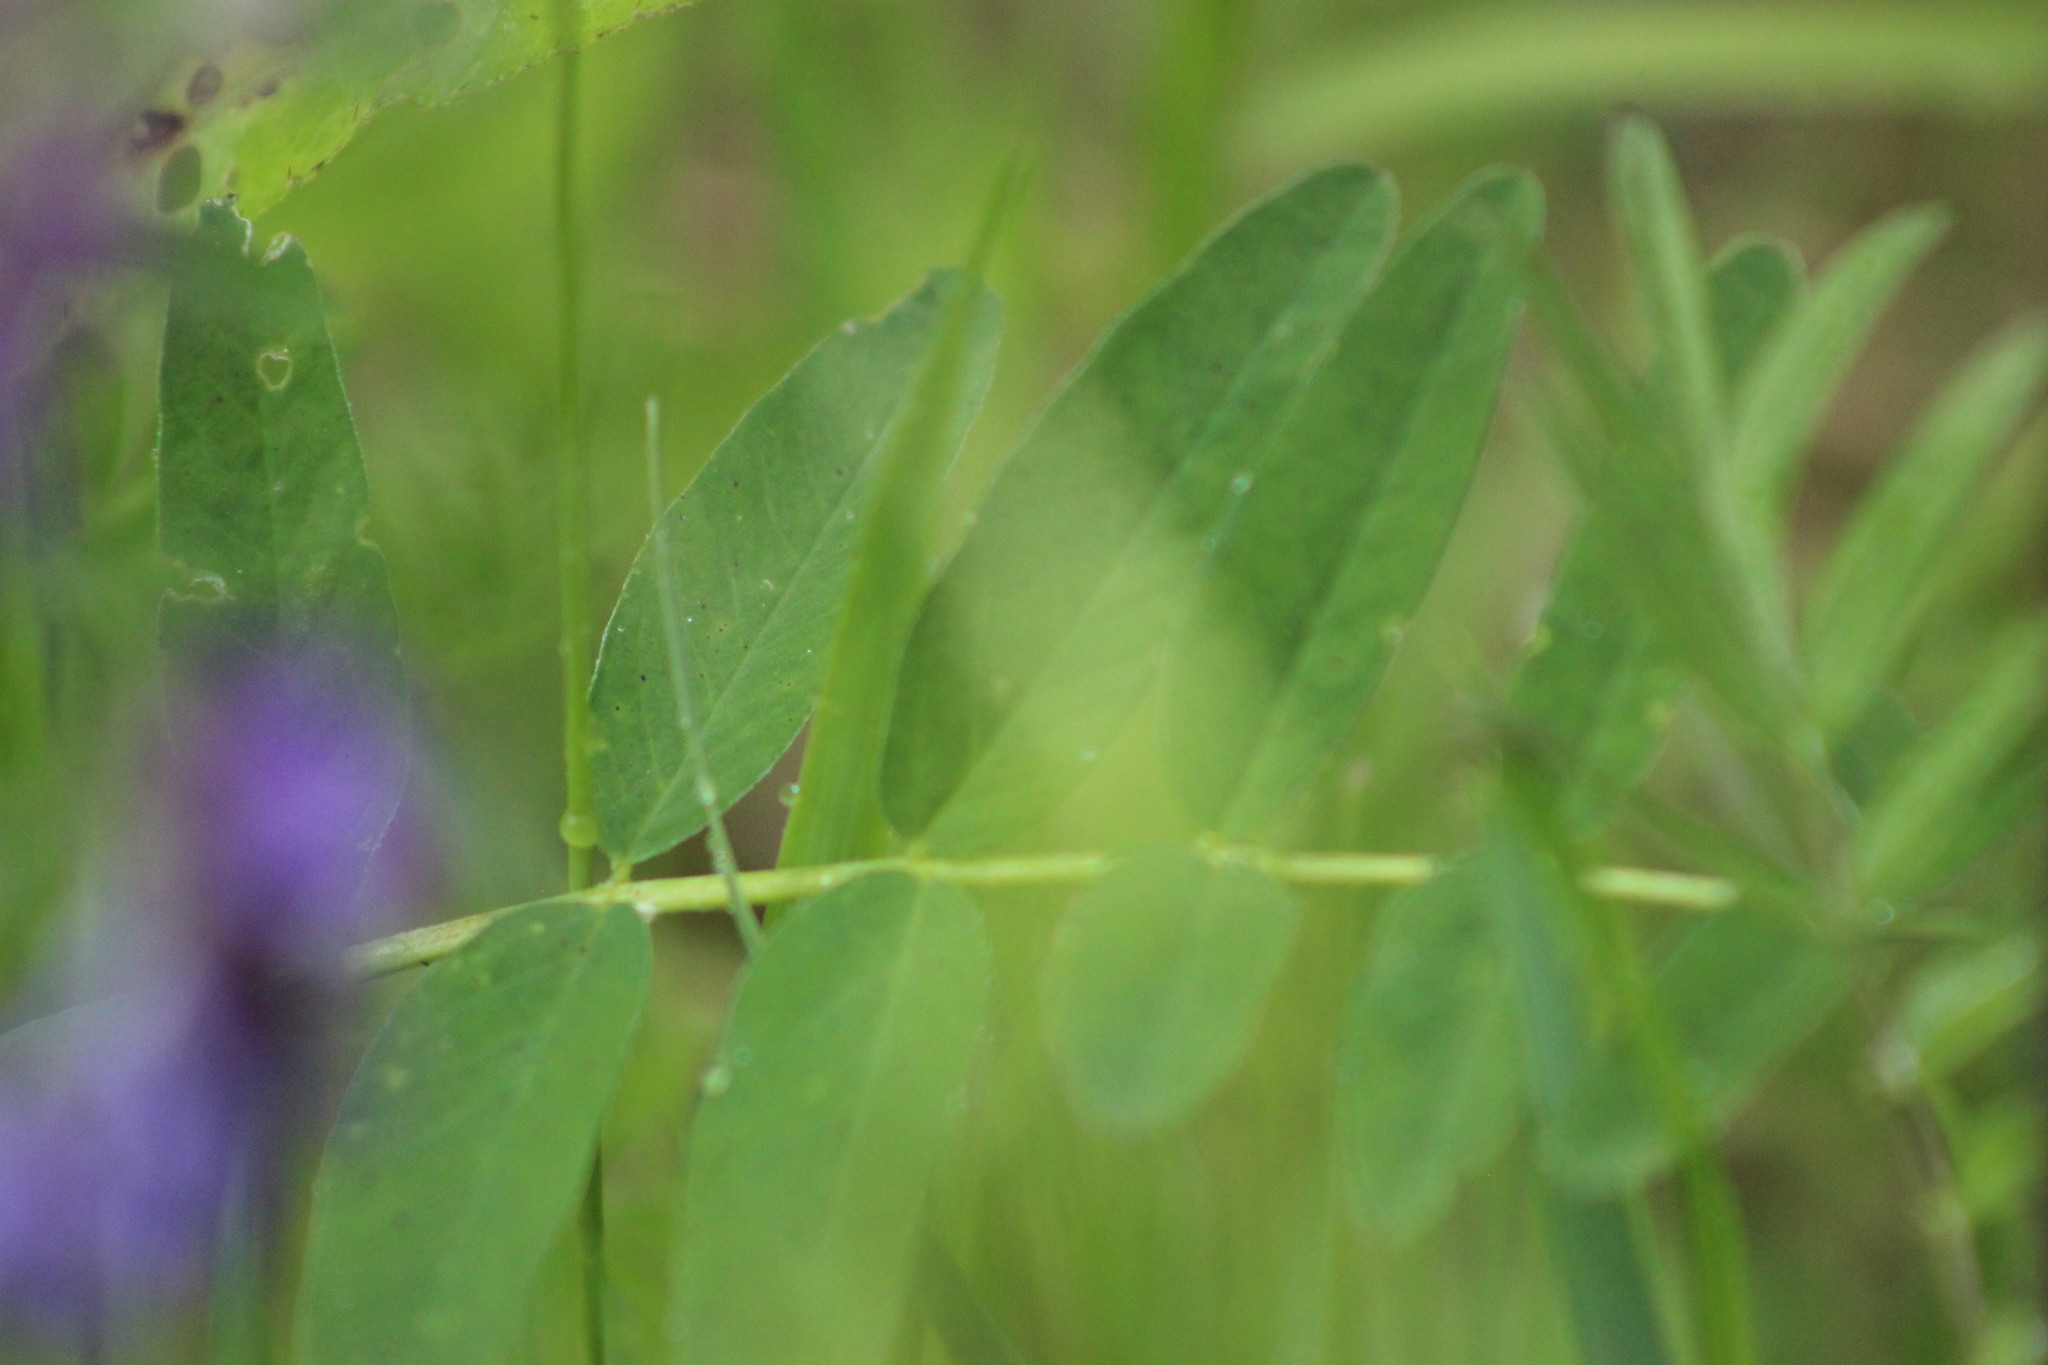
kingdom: Plantae
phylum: Tracheophyta
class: Magnoliopsida
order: Ericales
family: Polemoniaceae
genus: Polemonium
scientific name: Polemonium caeruleum
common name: Jacob's-ladder
